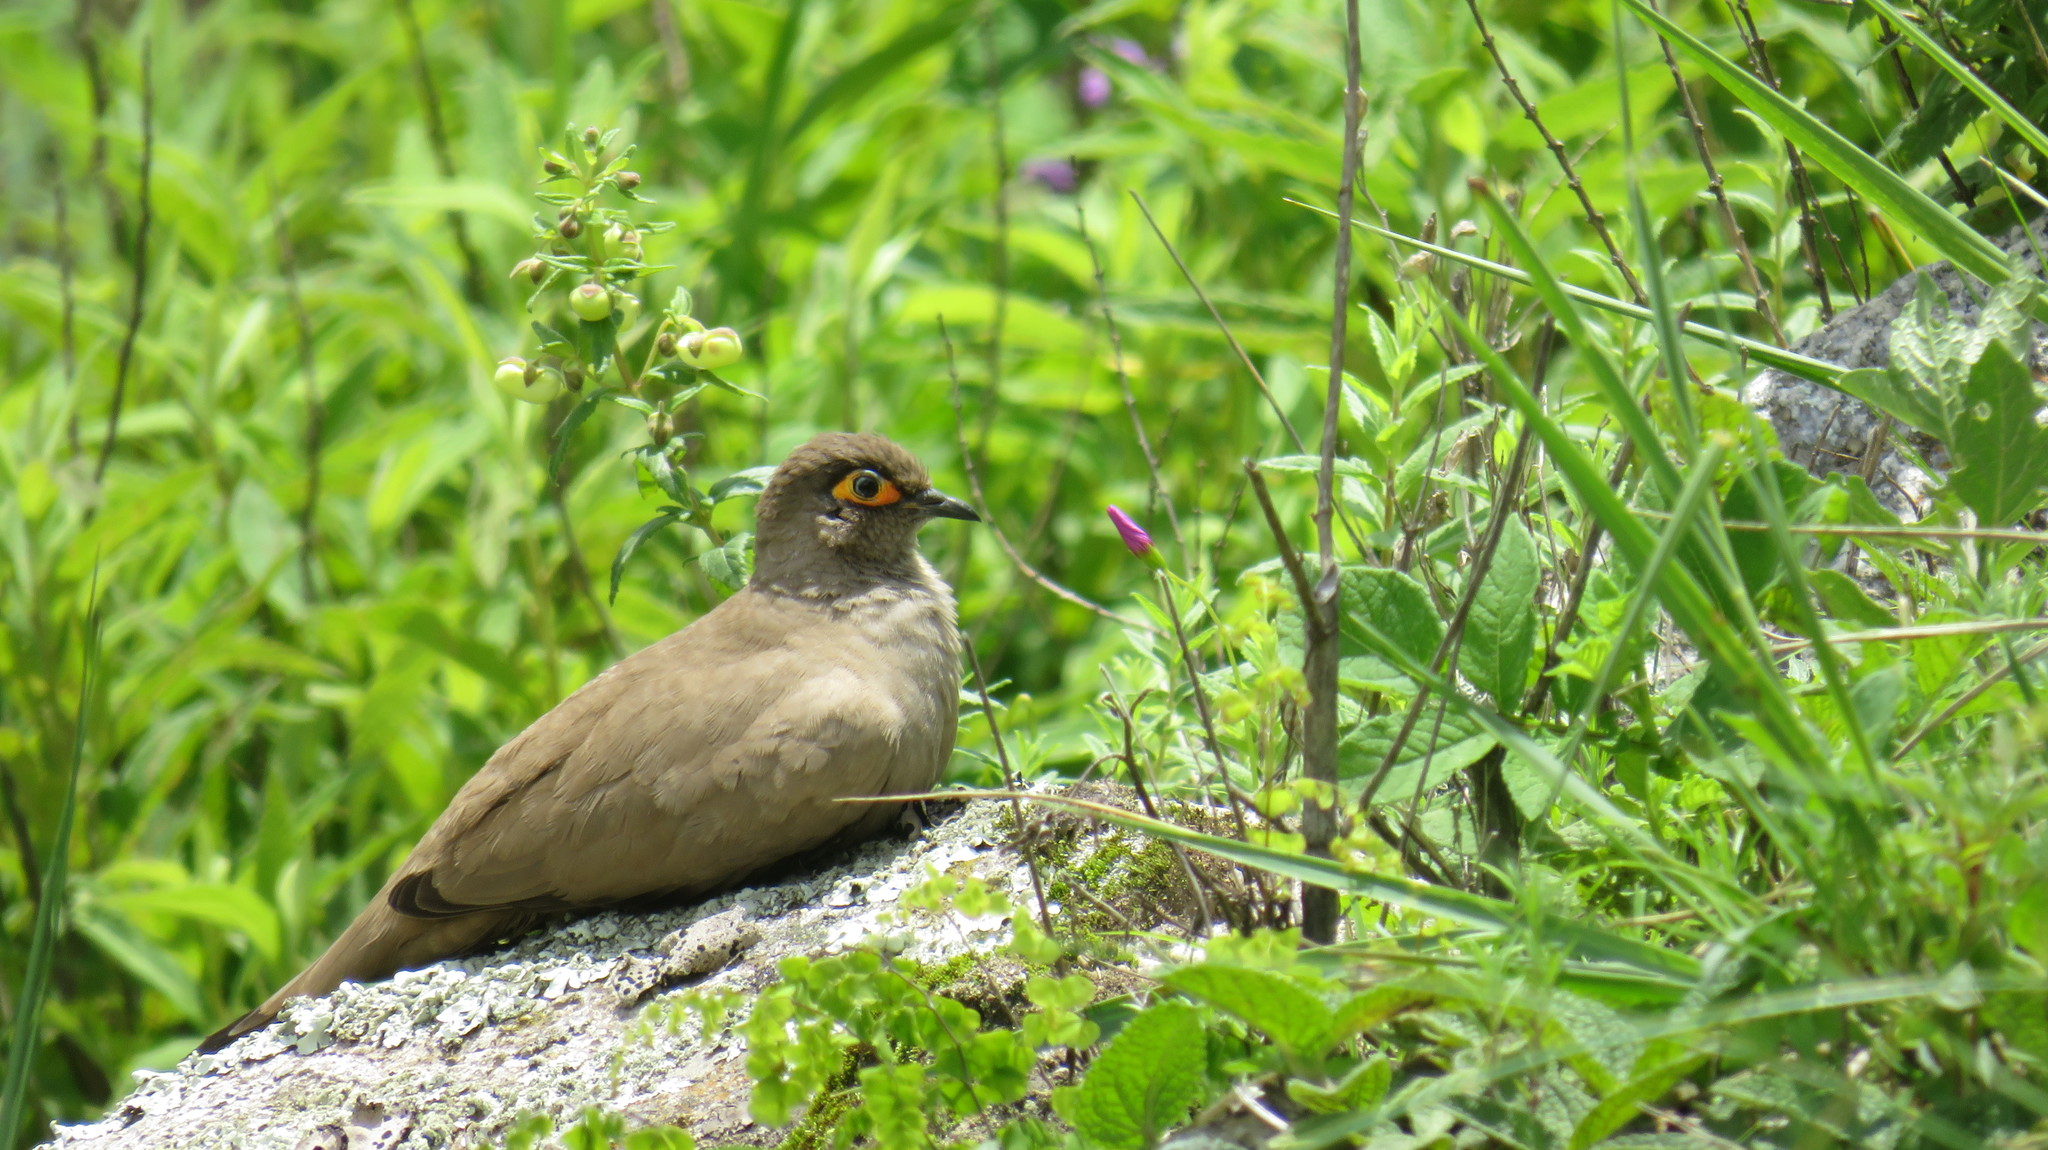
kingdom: Animalia
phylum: Chordata
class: Aves
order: Columbiformes
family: Columbidae
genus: Metriopelia
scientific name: Metriopelia morenoi
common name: Moreno's ground dove
